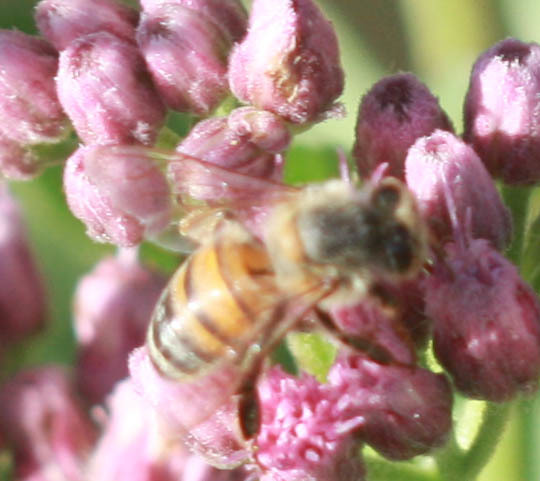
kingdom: Animalia
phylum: Arthropoda
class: Insecta
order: Hymenoptera
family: Apidae
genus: Apis
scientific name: Apis mellifera
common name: Honey bee
